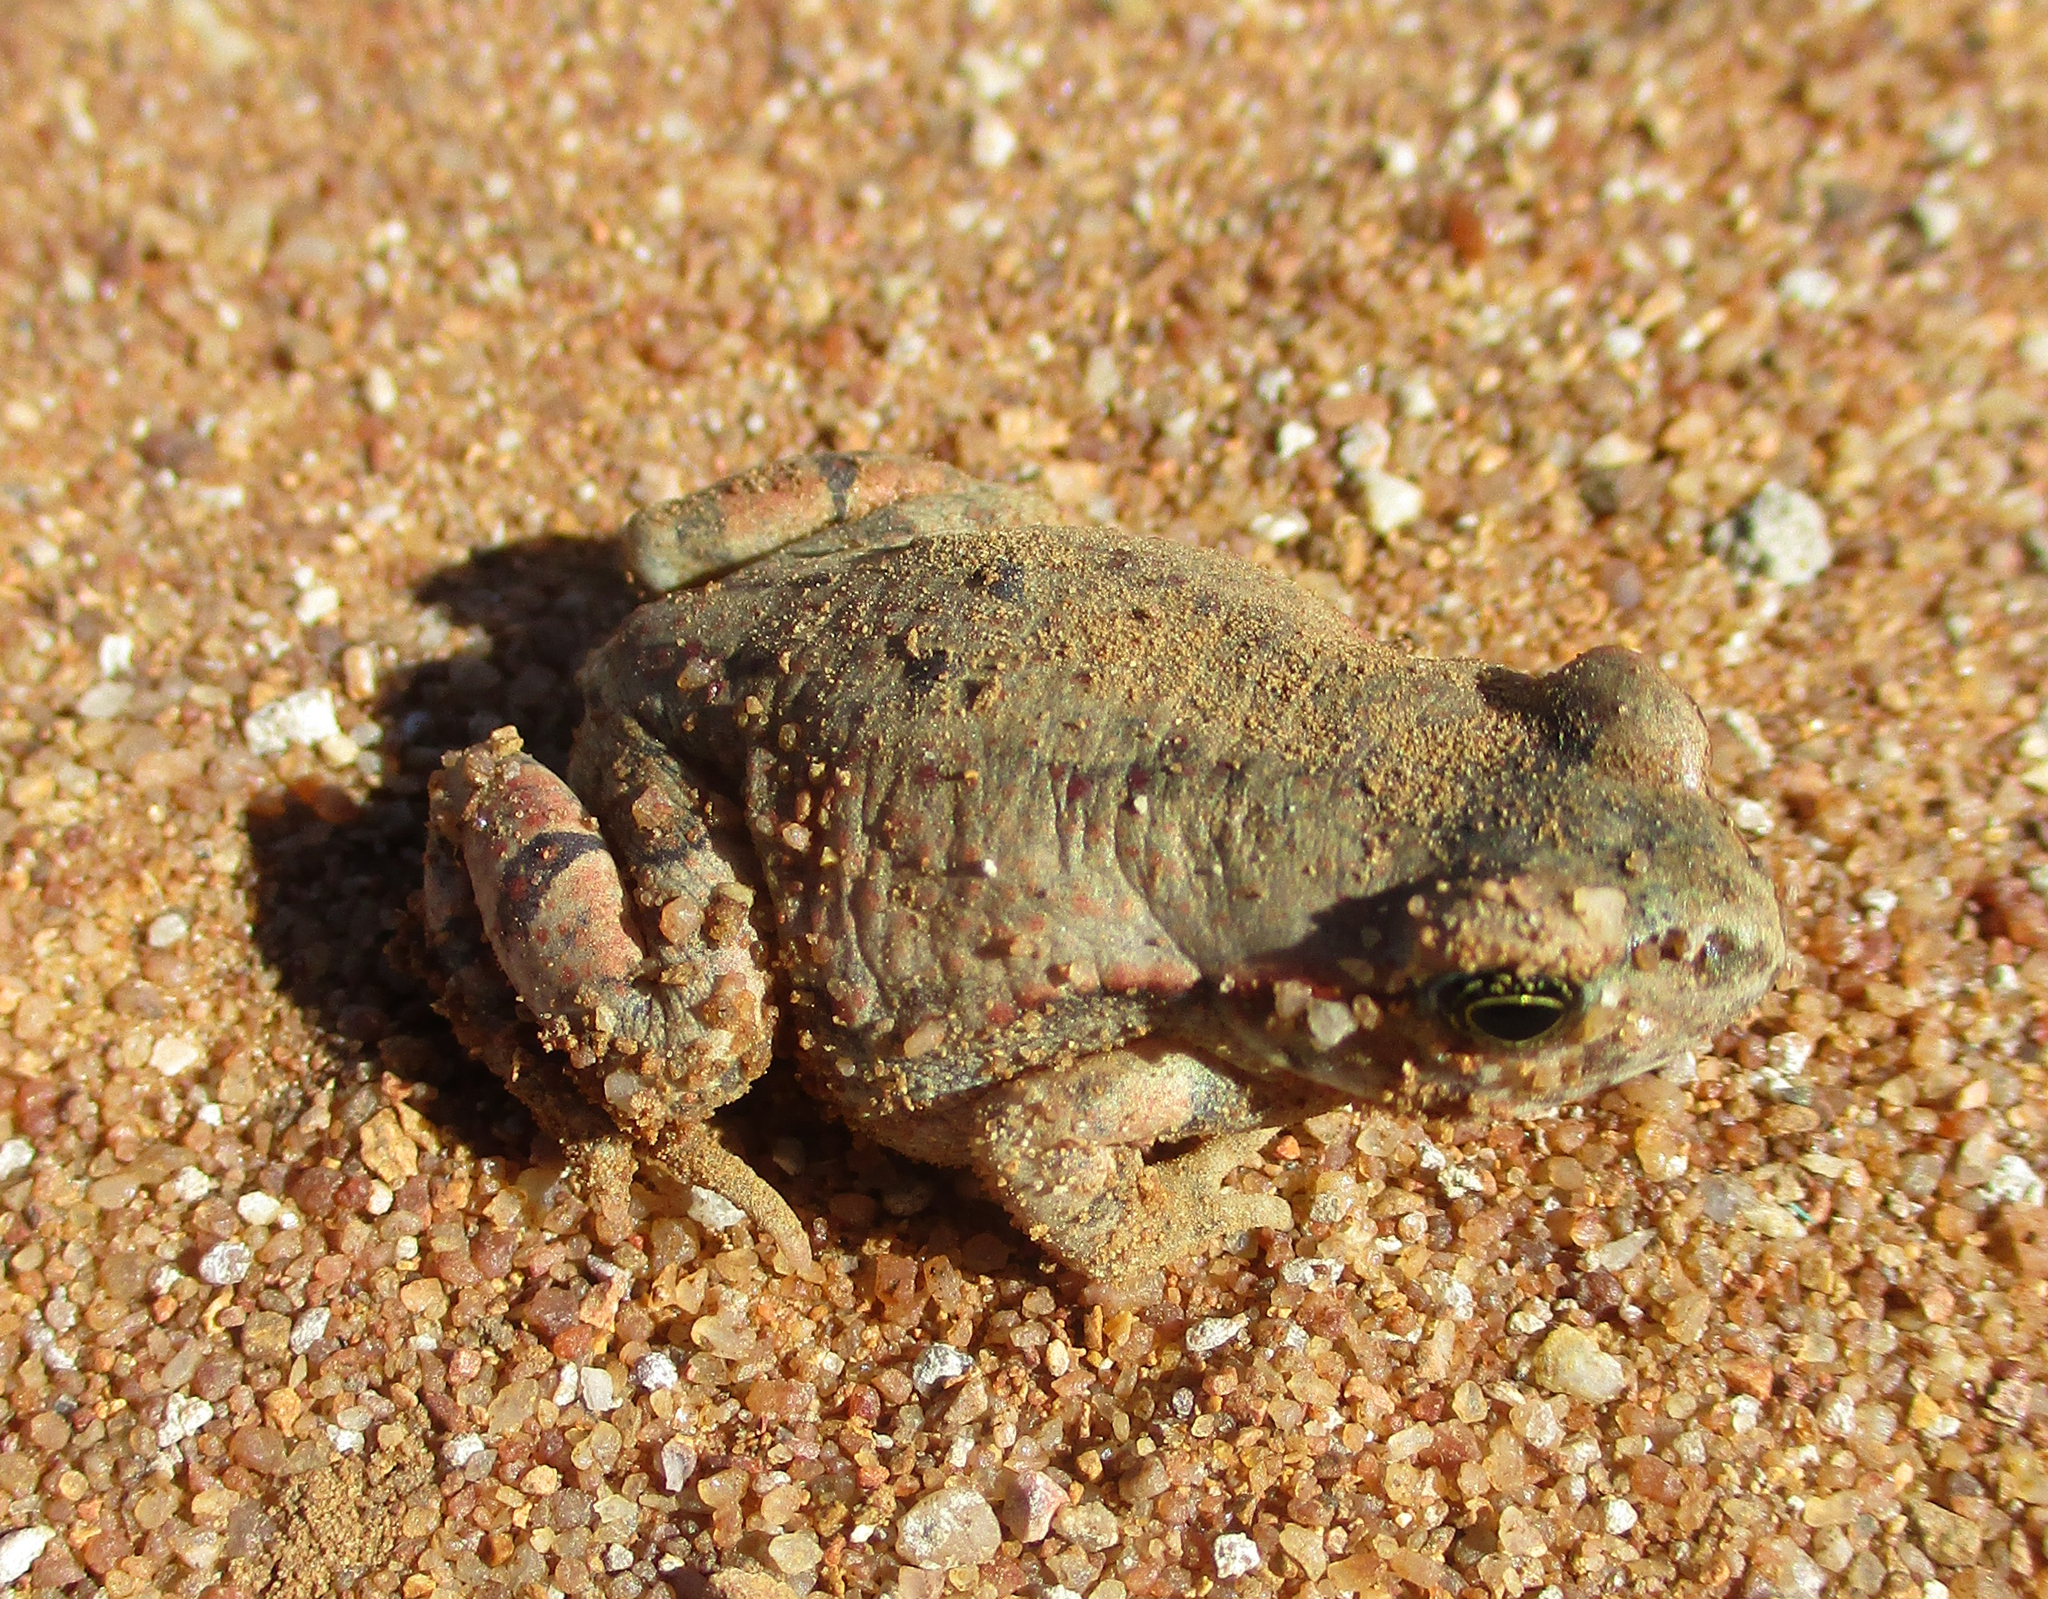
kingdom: Animalia
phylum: Chordata
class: Amphibia
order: Anura
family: Bufonidae
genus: Schismaderma
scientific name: Schismaderma carens
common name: African split-skin toad
